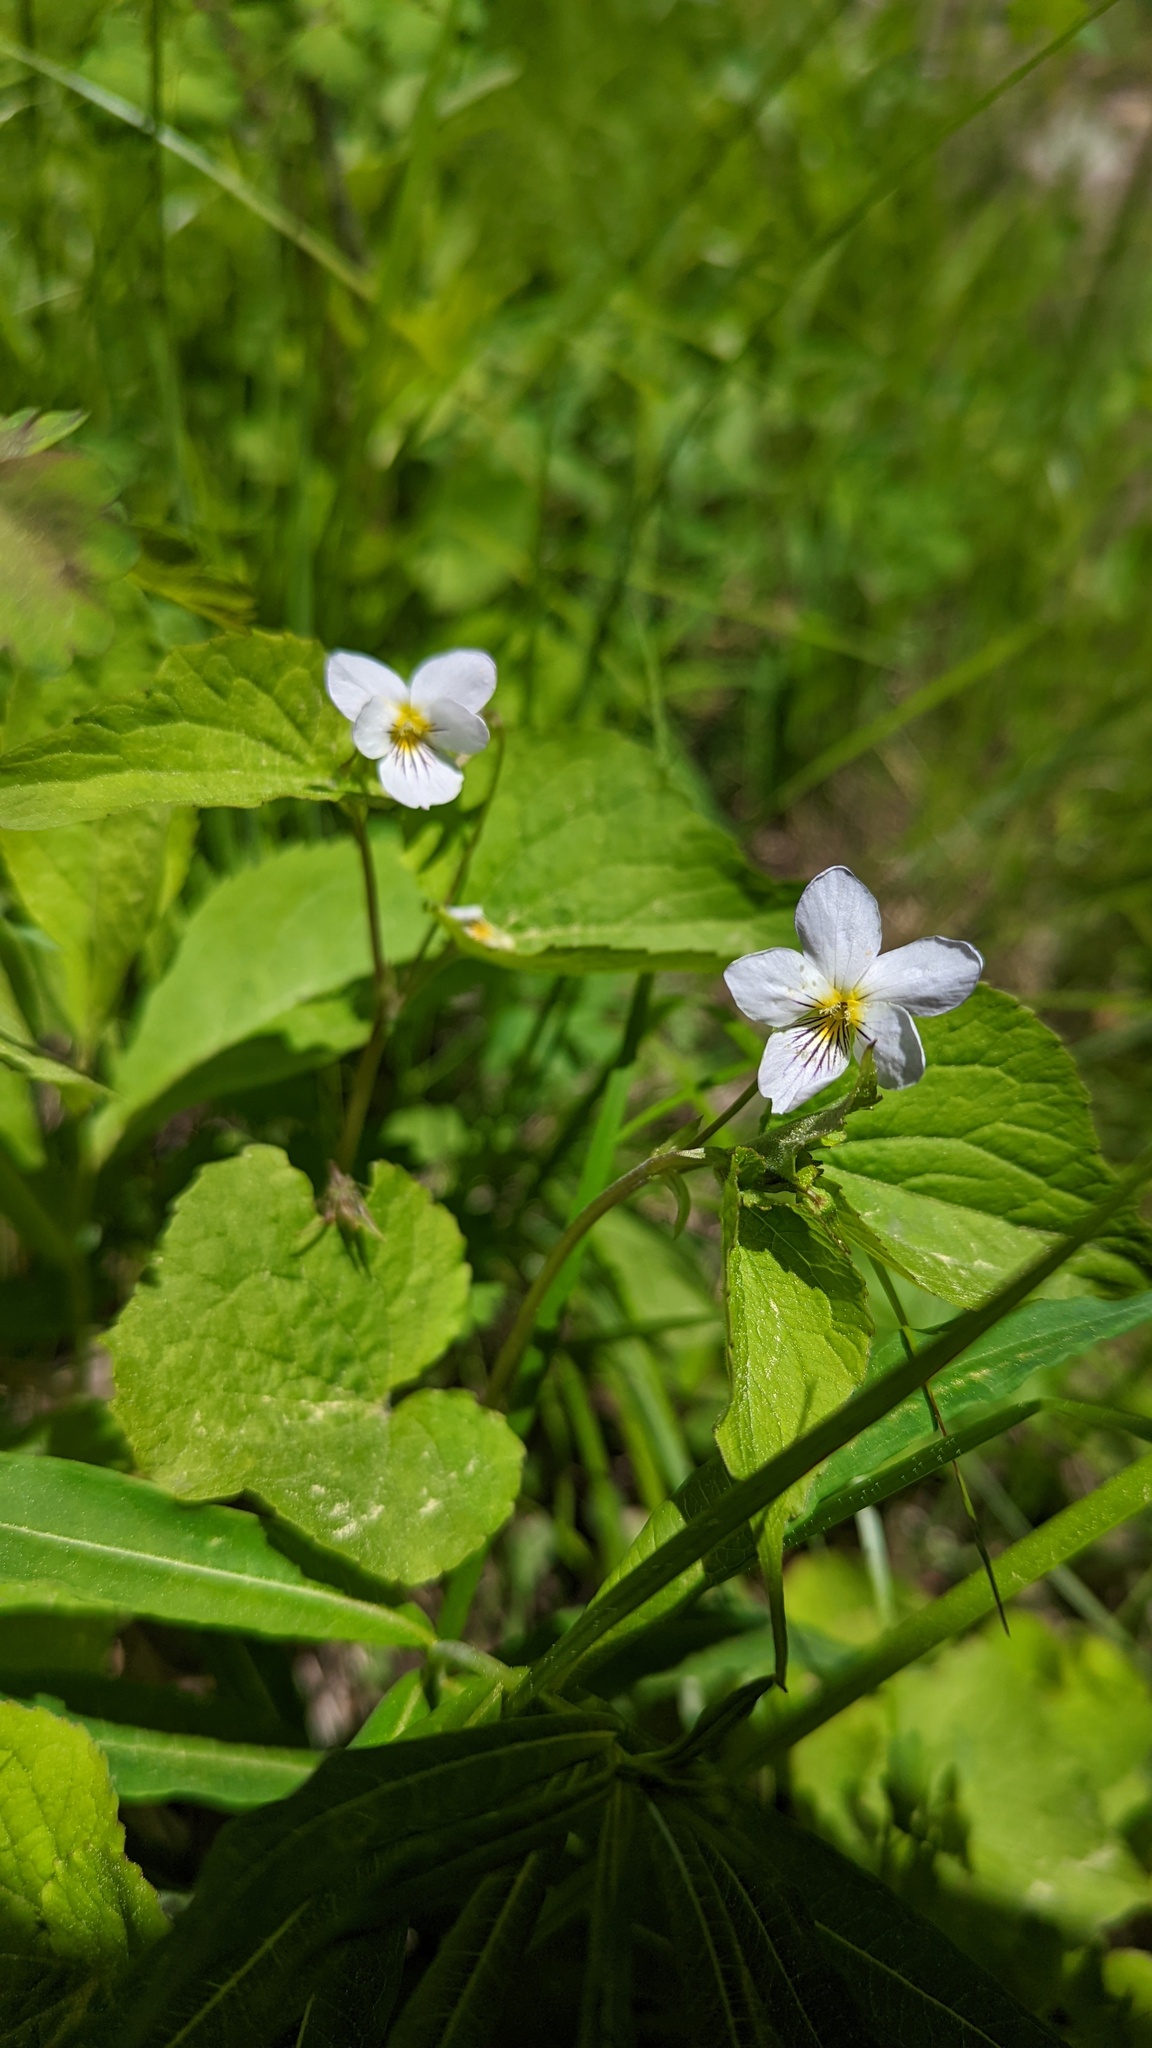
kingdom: Plantae
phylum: Tracheophyta
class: Magnoliopsida
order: Malpighiales
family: Violaceae
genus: Viola
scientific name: Viola canadensis
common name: Canada violet
